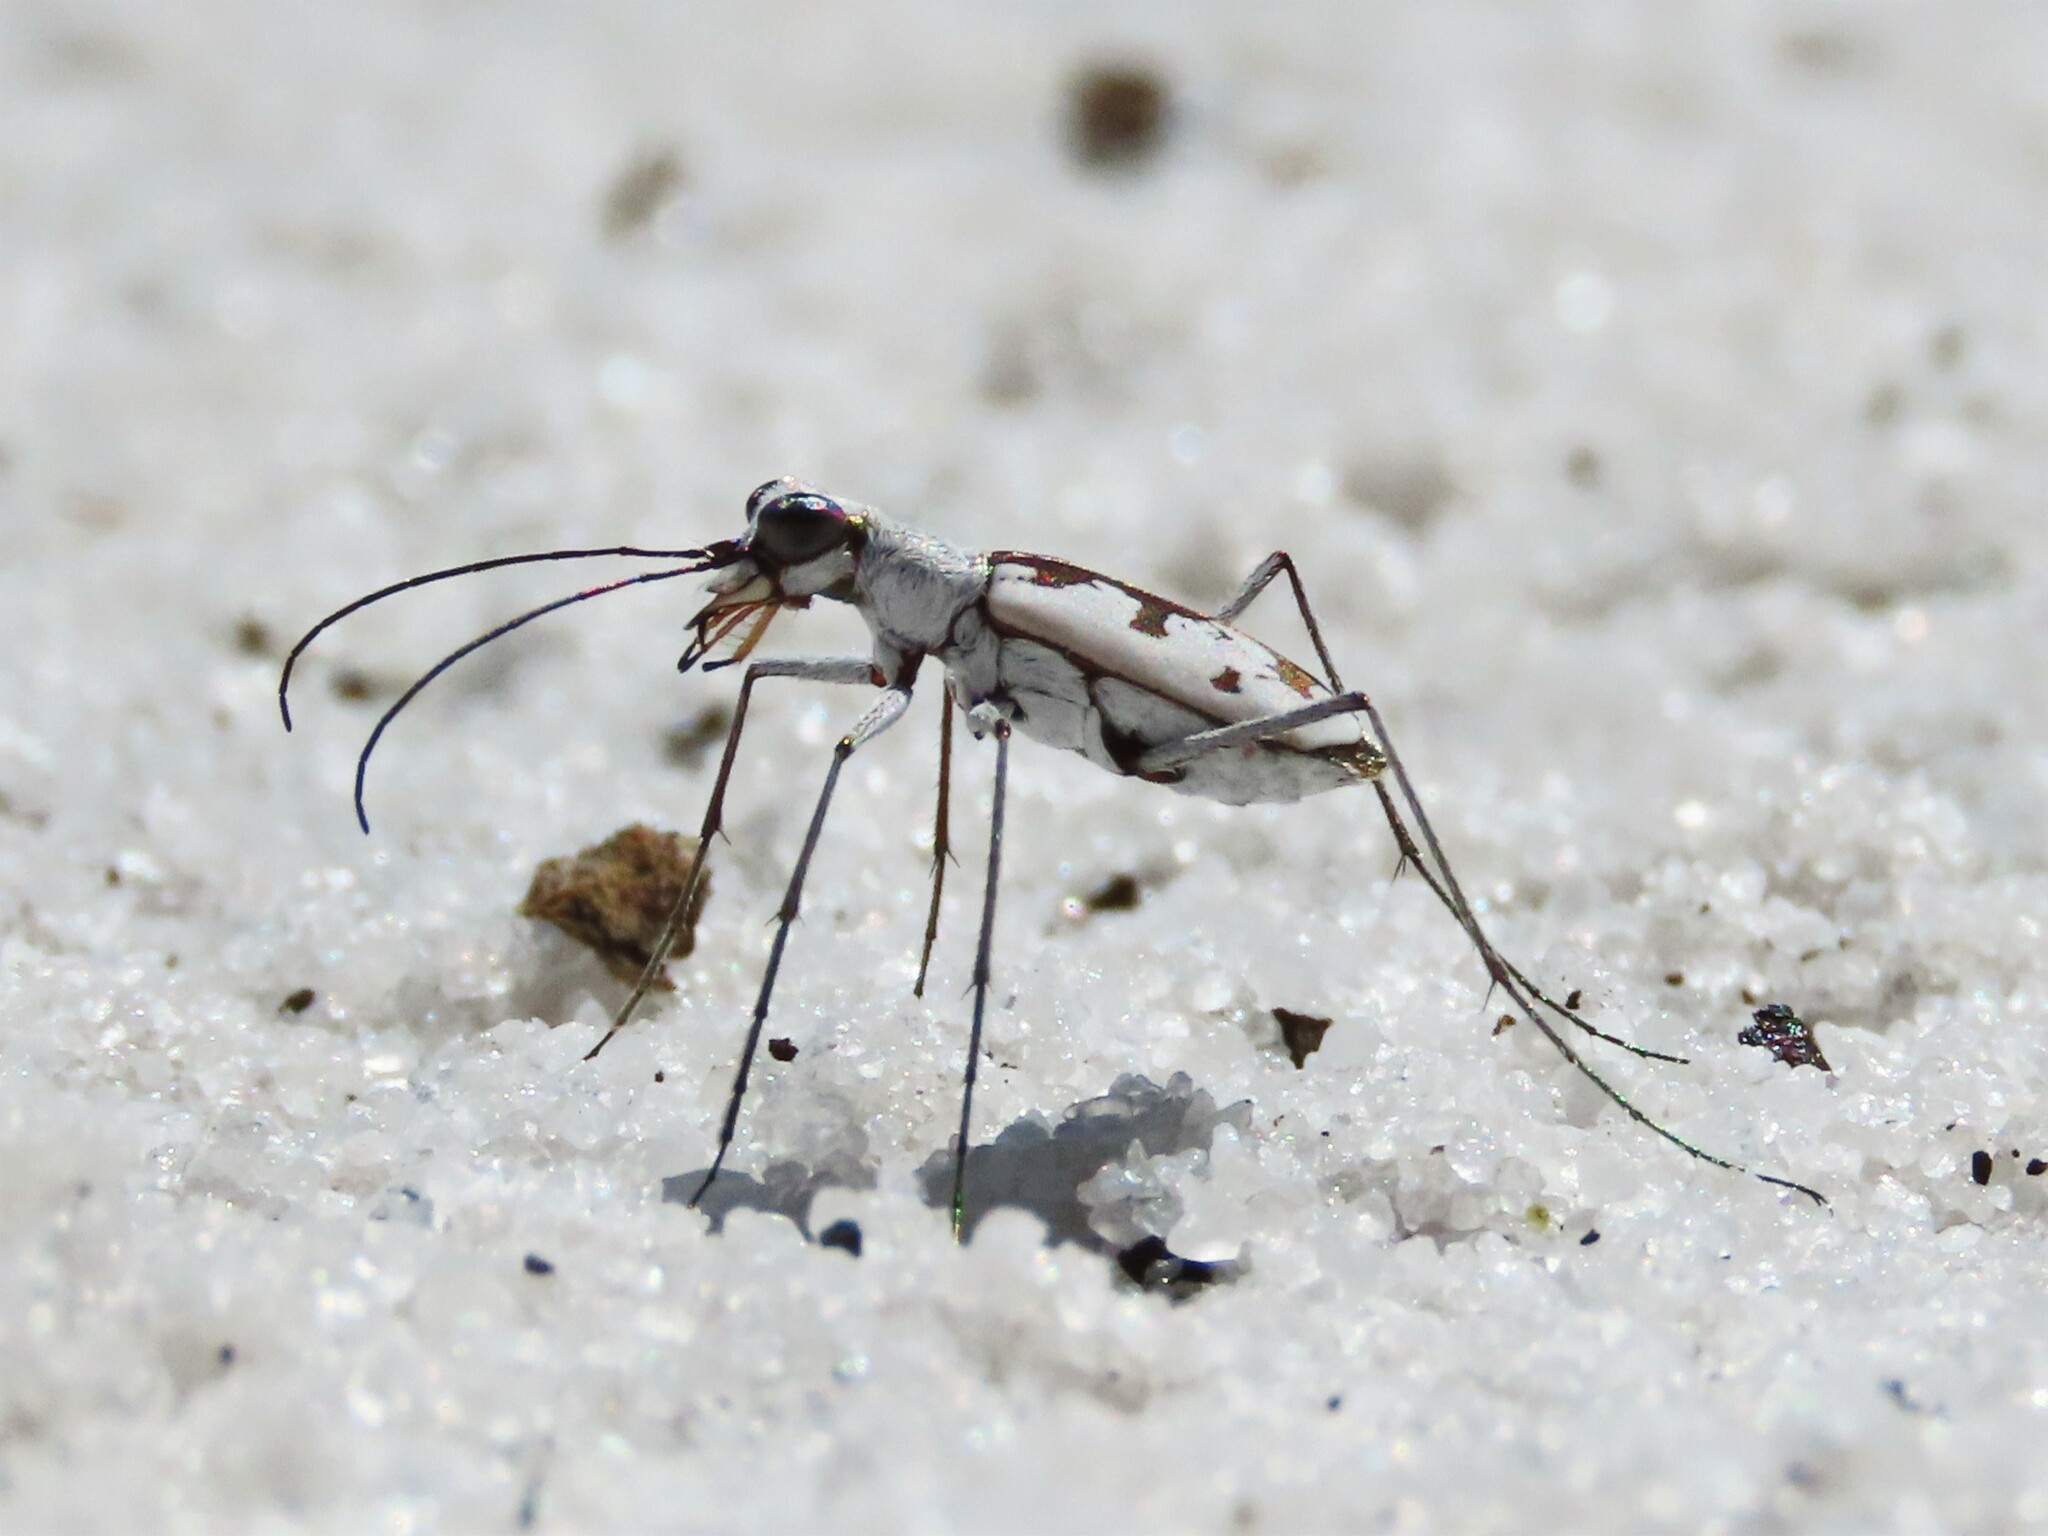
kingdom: Animalia
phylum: Arthropoda
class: Insecta
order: Coleoptera
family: Carabidae
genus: Ellipsoptera
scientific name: Ellipsoptera hirtilabris
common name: Moustached tiger beetle
